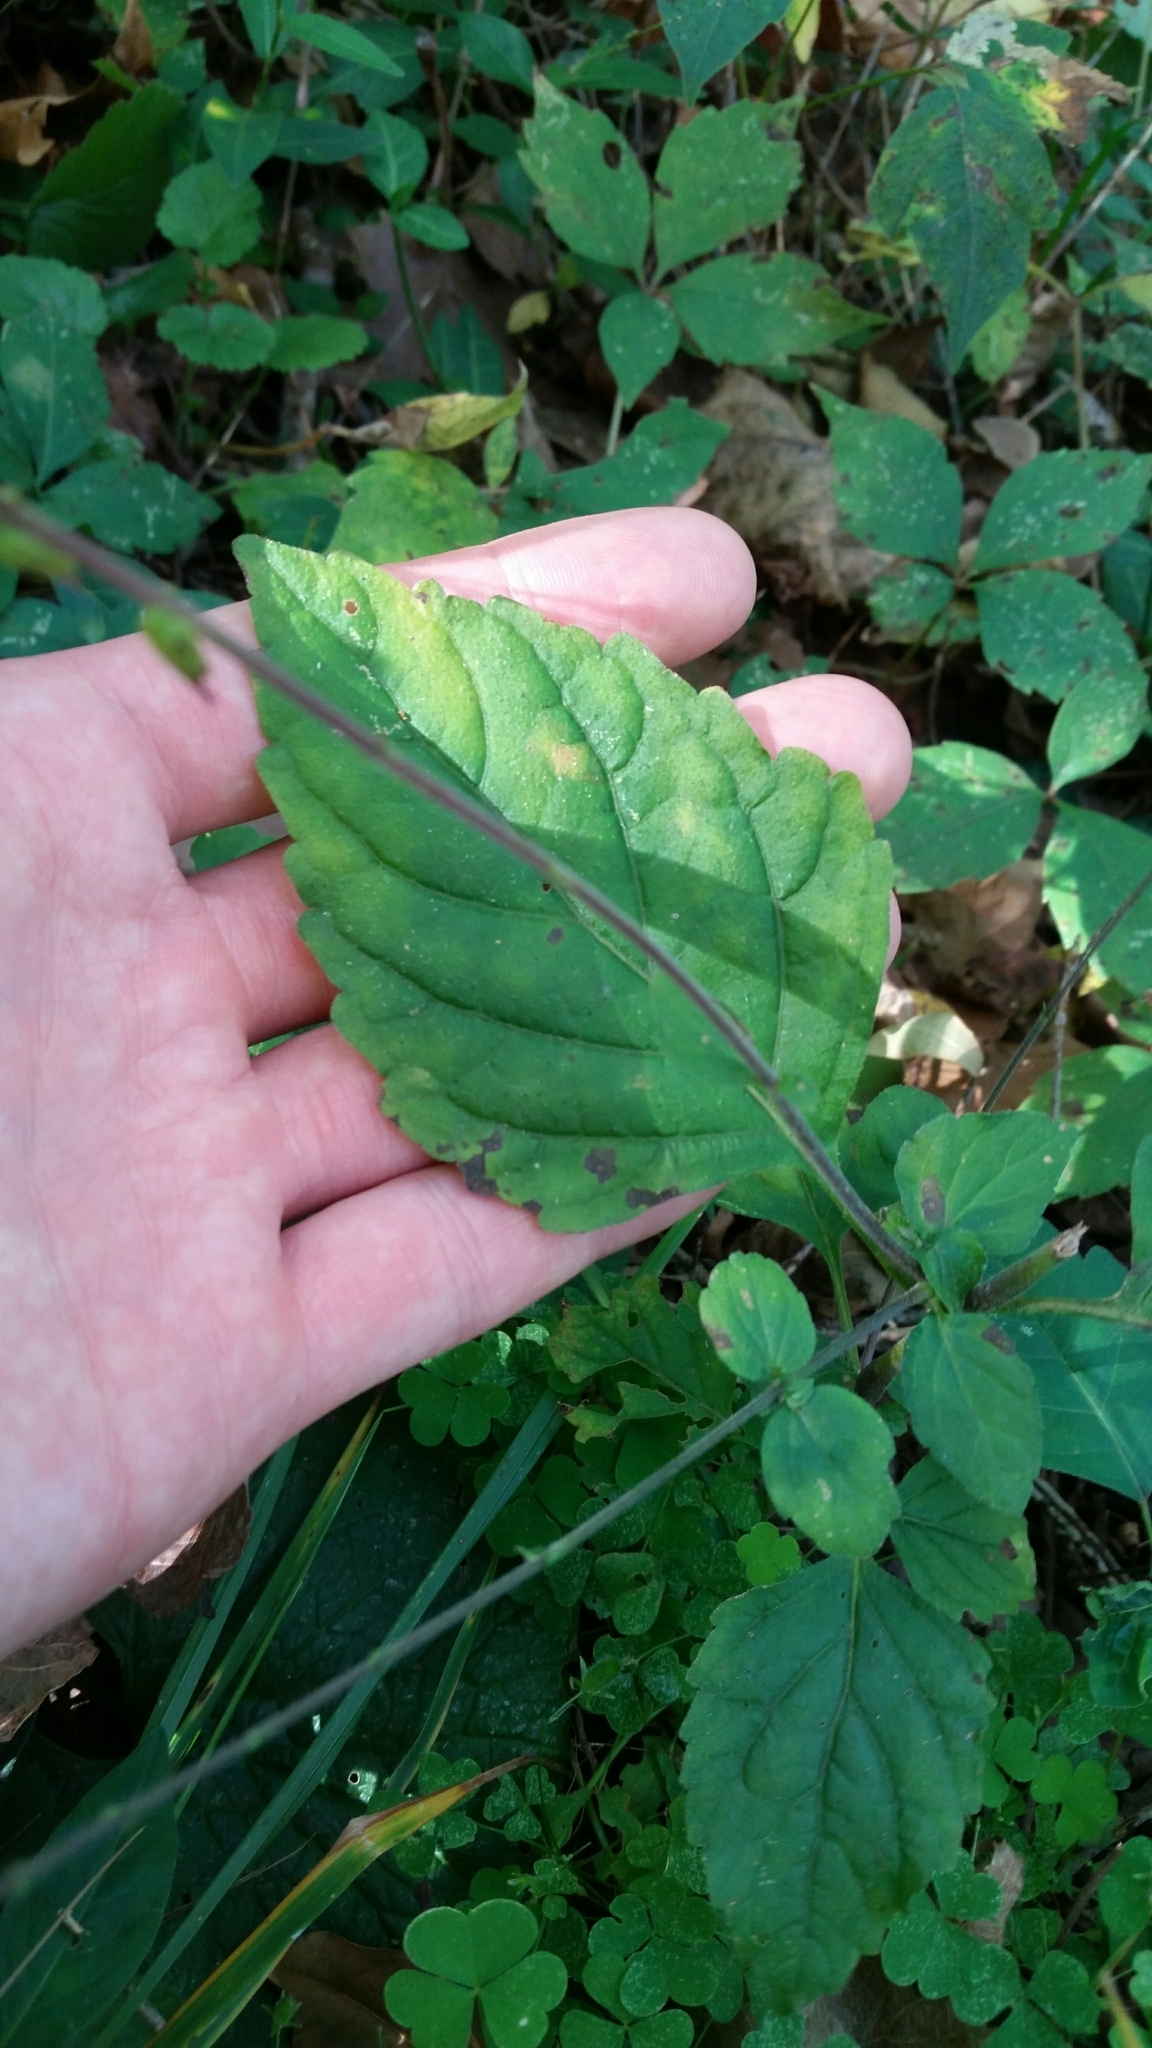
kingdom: Plantae
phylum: Tracheophyta
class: Magnoliopsida
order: Lamiales
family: Phrymaceae
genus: Phryma
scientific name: Phryma leptostachya
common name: American lopseed
